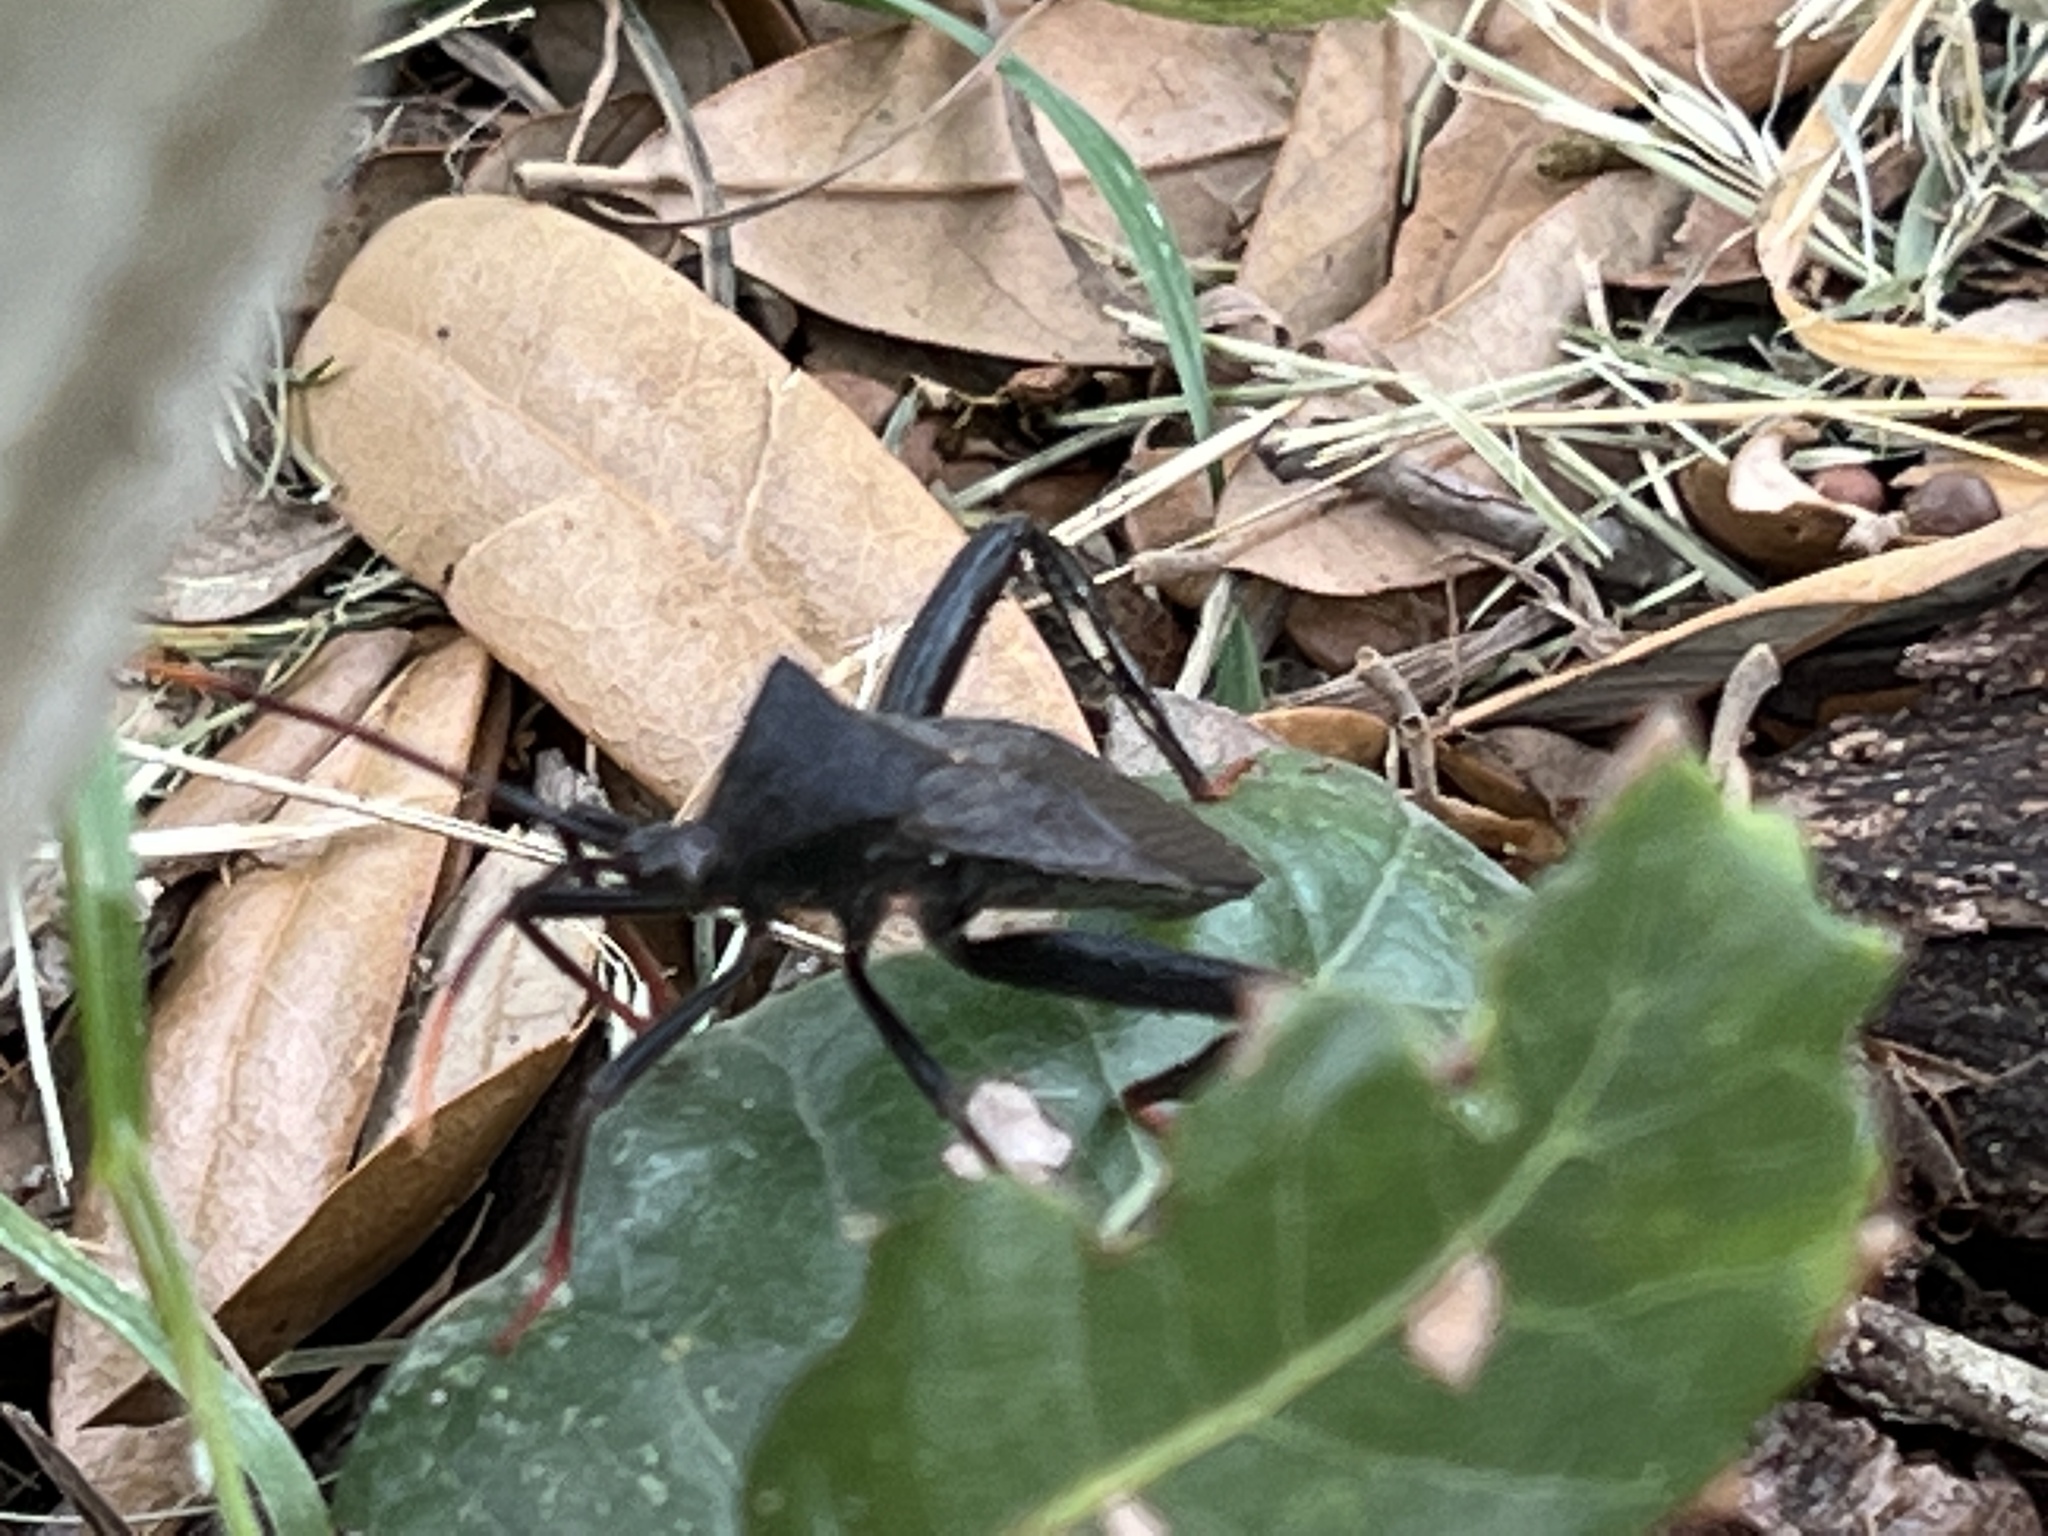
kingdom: Animalia
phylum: Arthropoda
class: Insecta
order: Hemiptera
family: Coreidae
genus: Acanthocephala
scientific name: Acanthocephala terminalis
